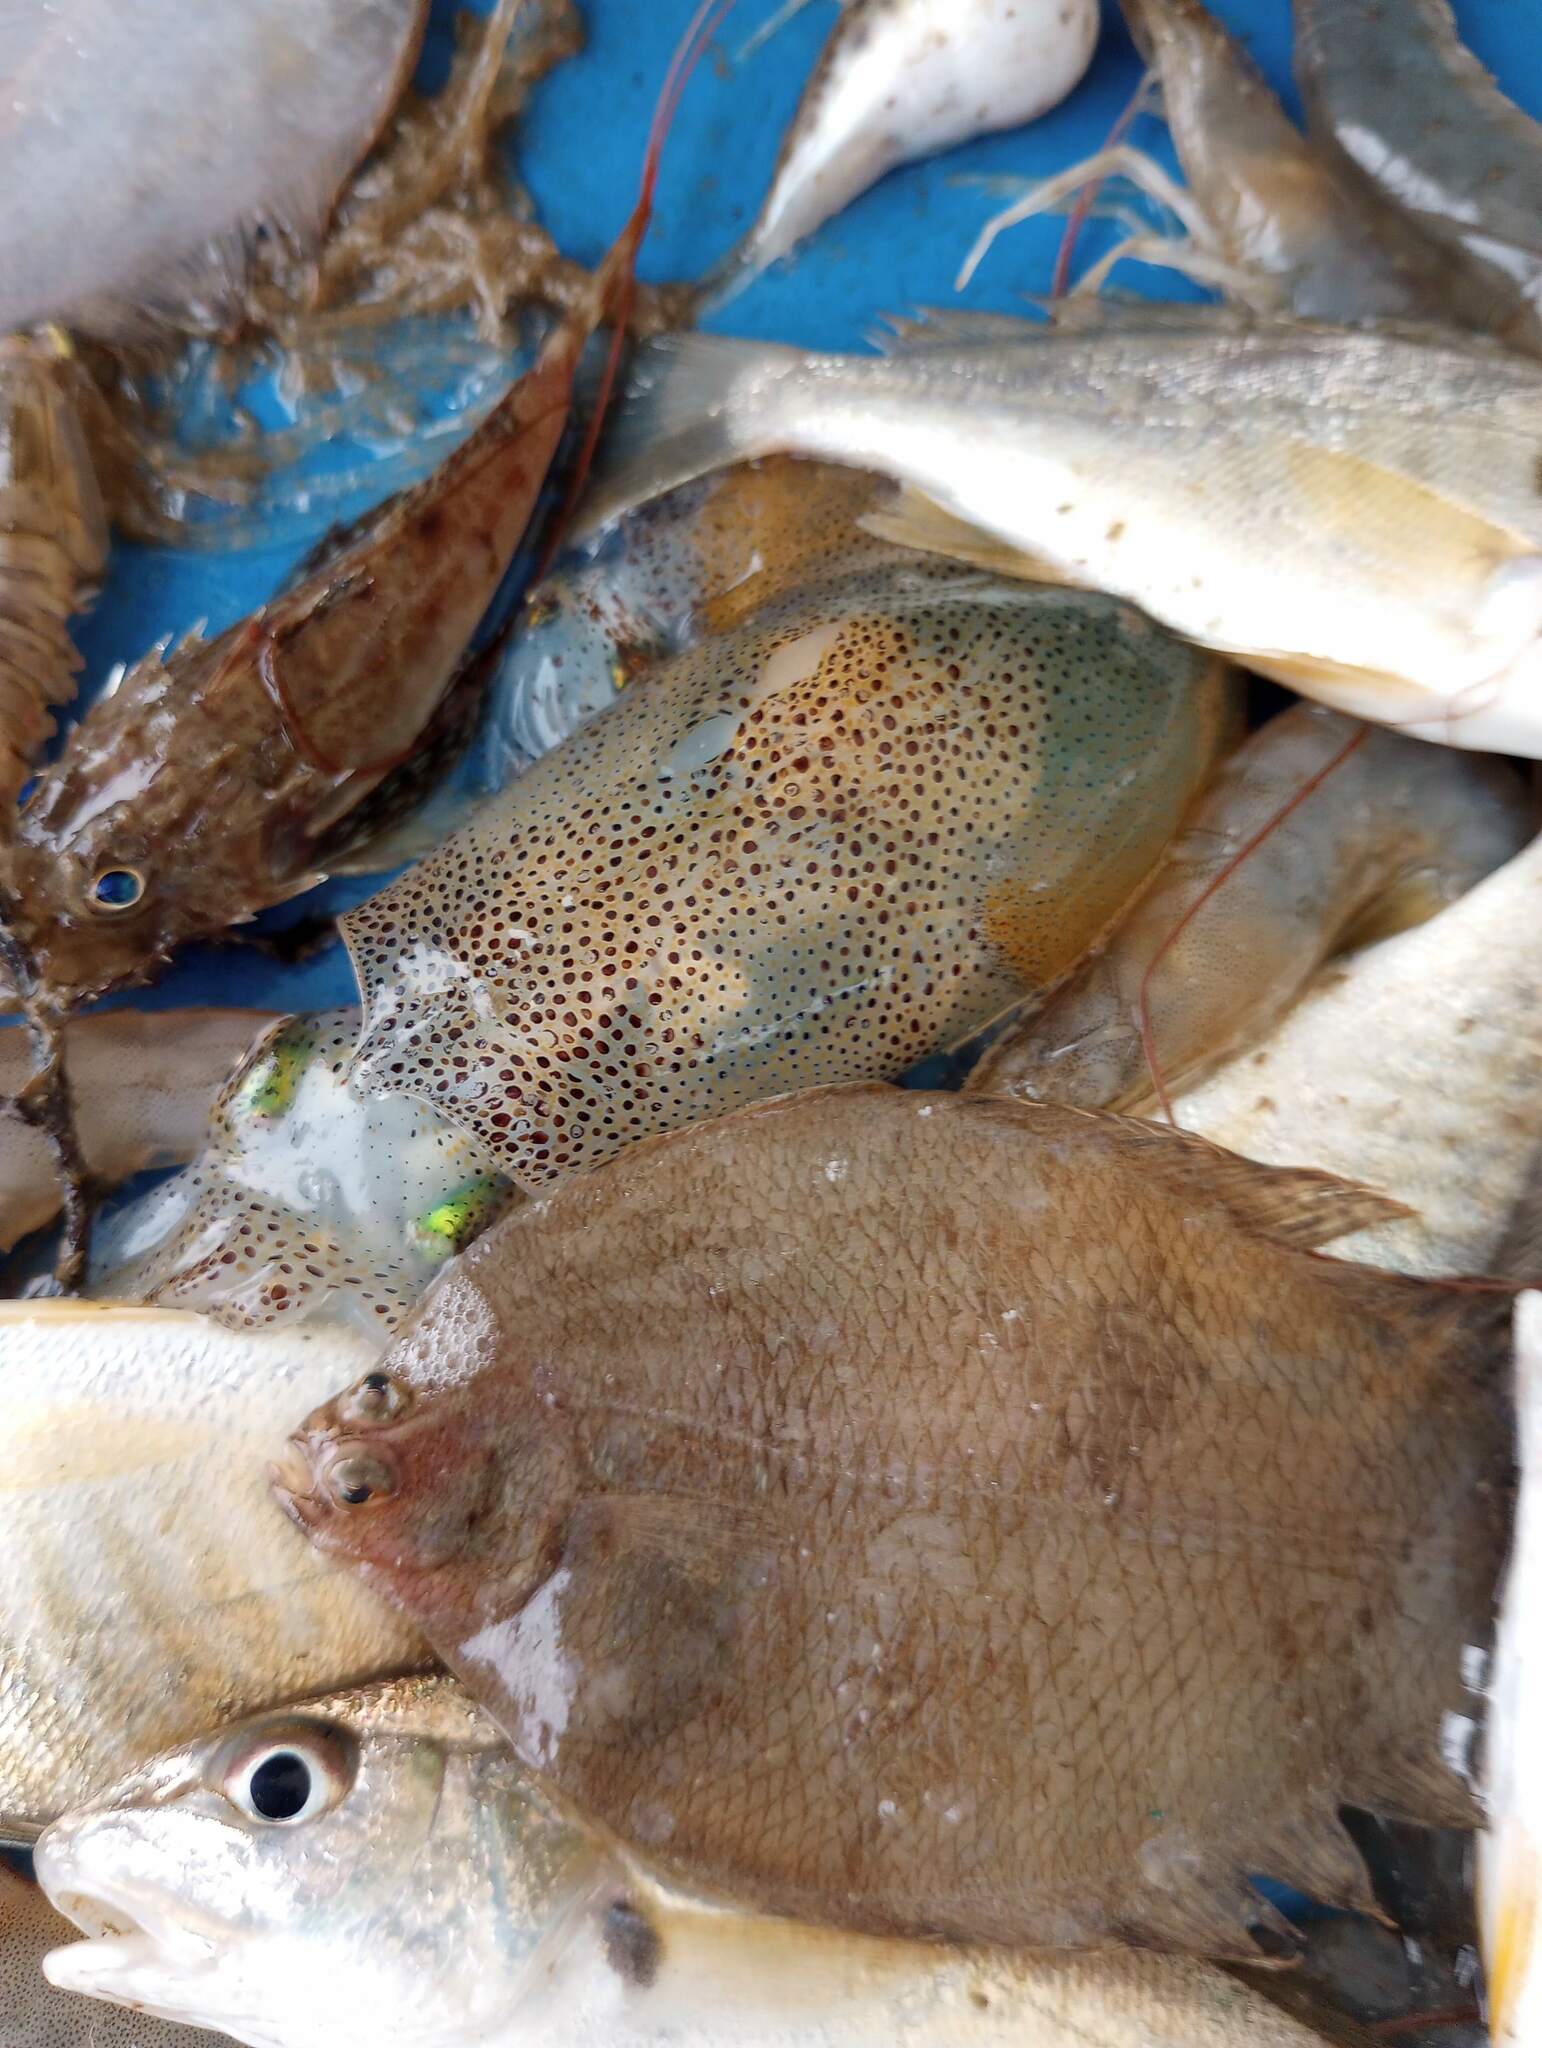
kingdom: Animalia
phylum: Chordata
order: Pleuronectiformes
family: Paralichthyidae
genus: Etropus
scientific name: Etropus crossotus
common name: Fringed flounder
